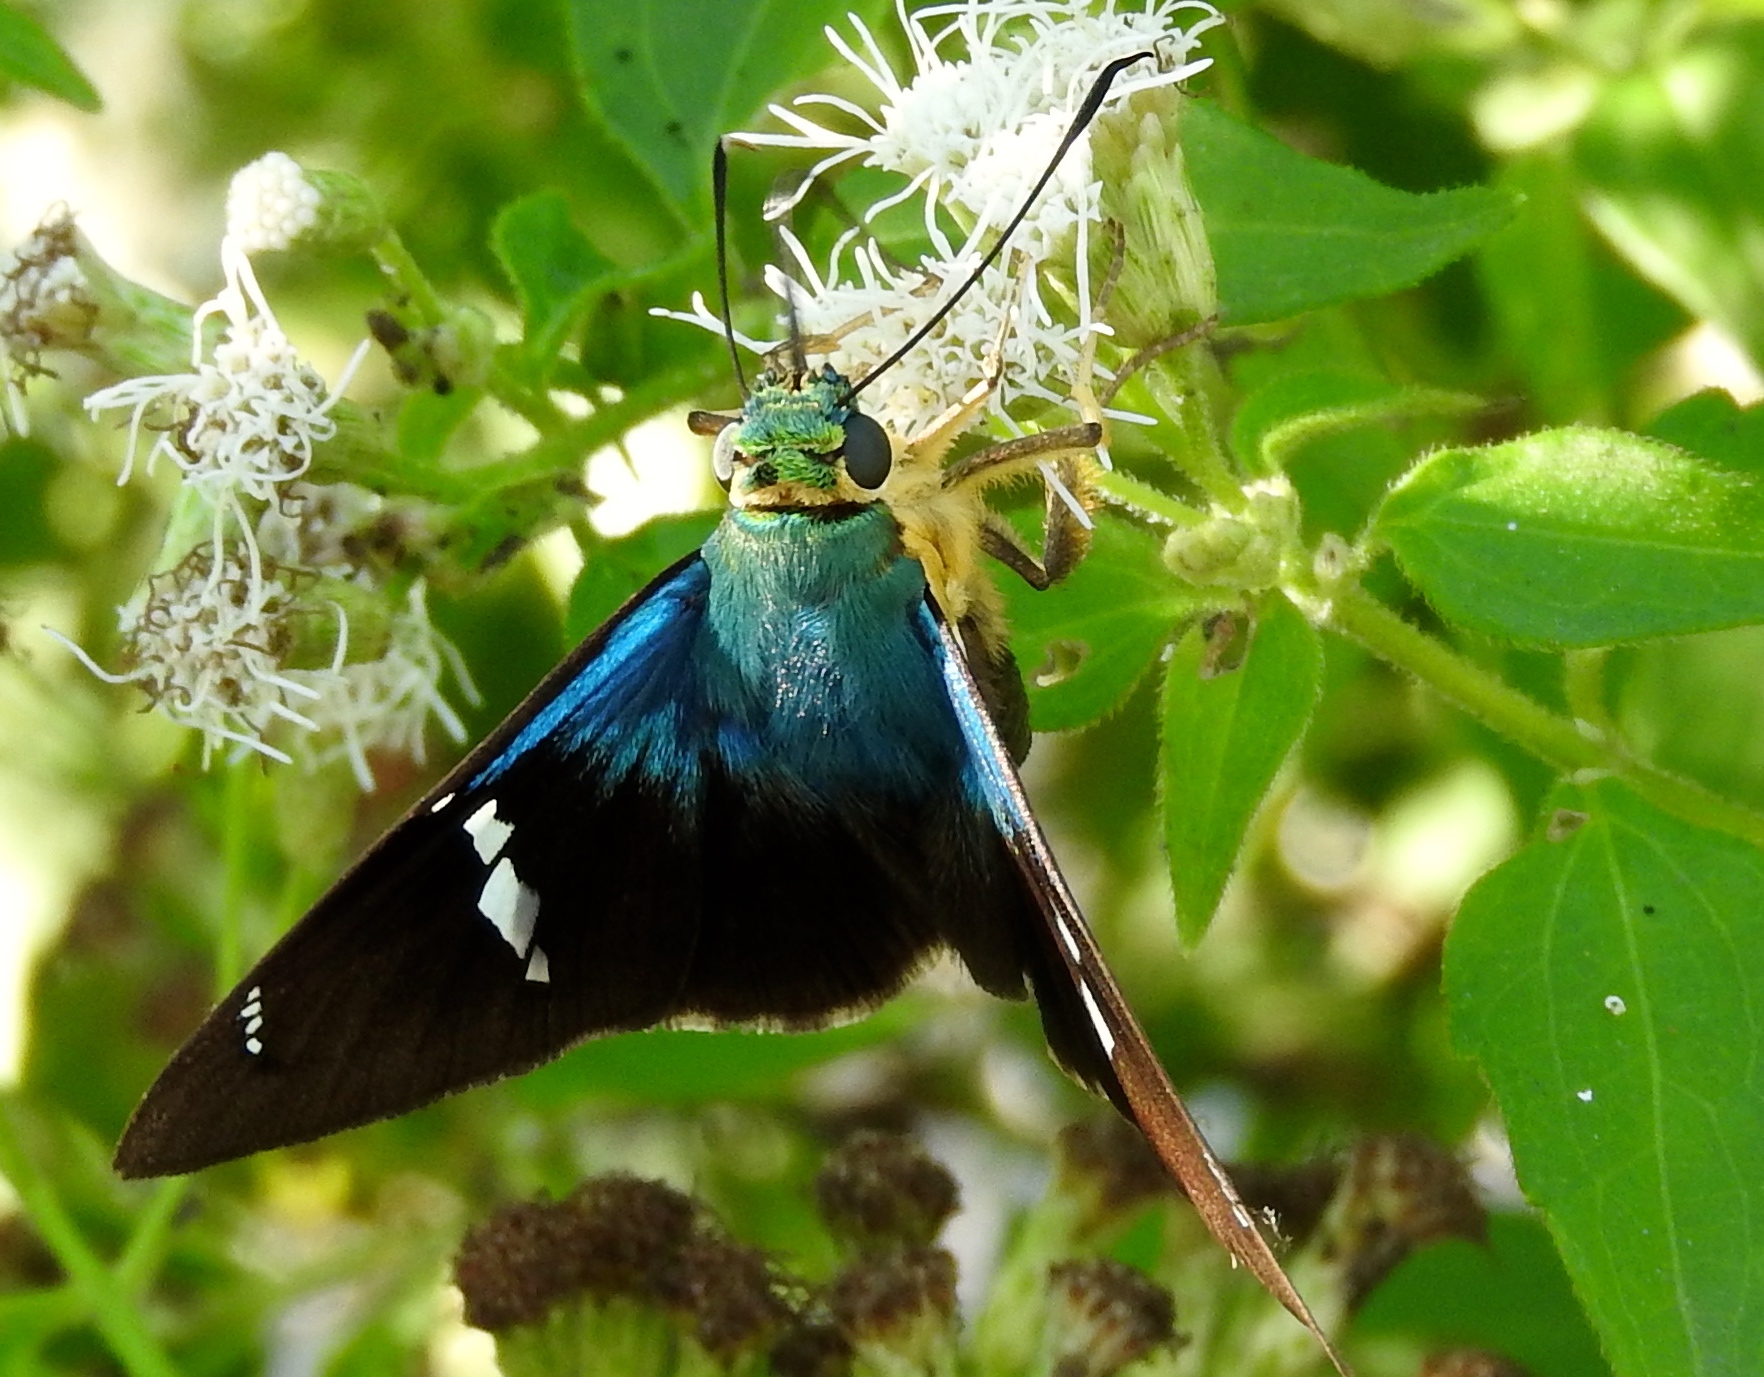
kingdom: Animalia
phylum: Arthropoda
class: Insecta
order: Lepidoptera
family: Hesperiidae
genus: Astraptes
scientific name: Astraptes fulgerator
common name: Two-barred flasher
